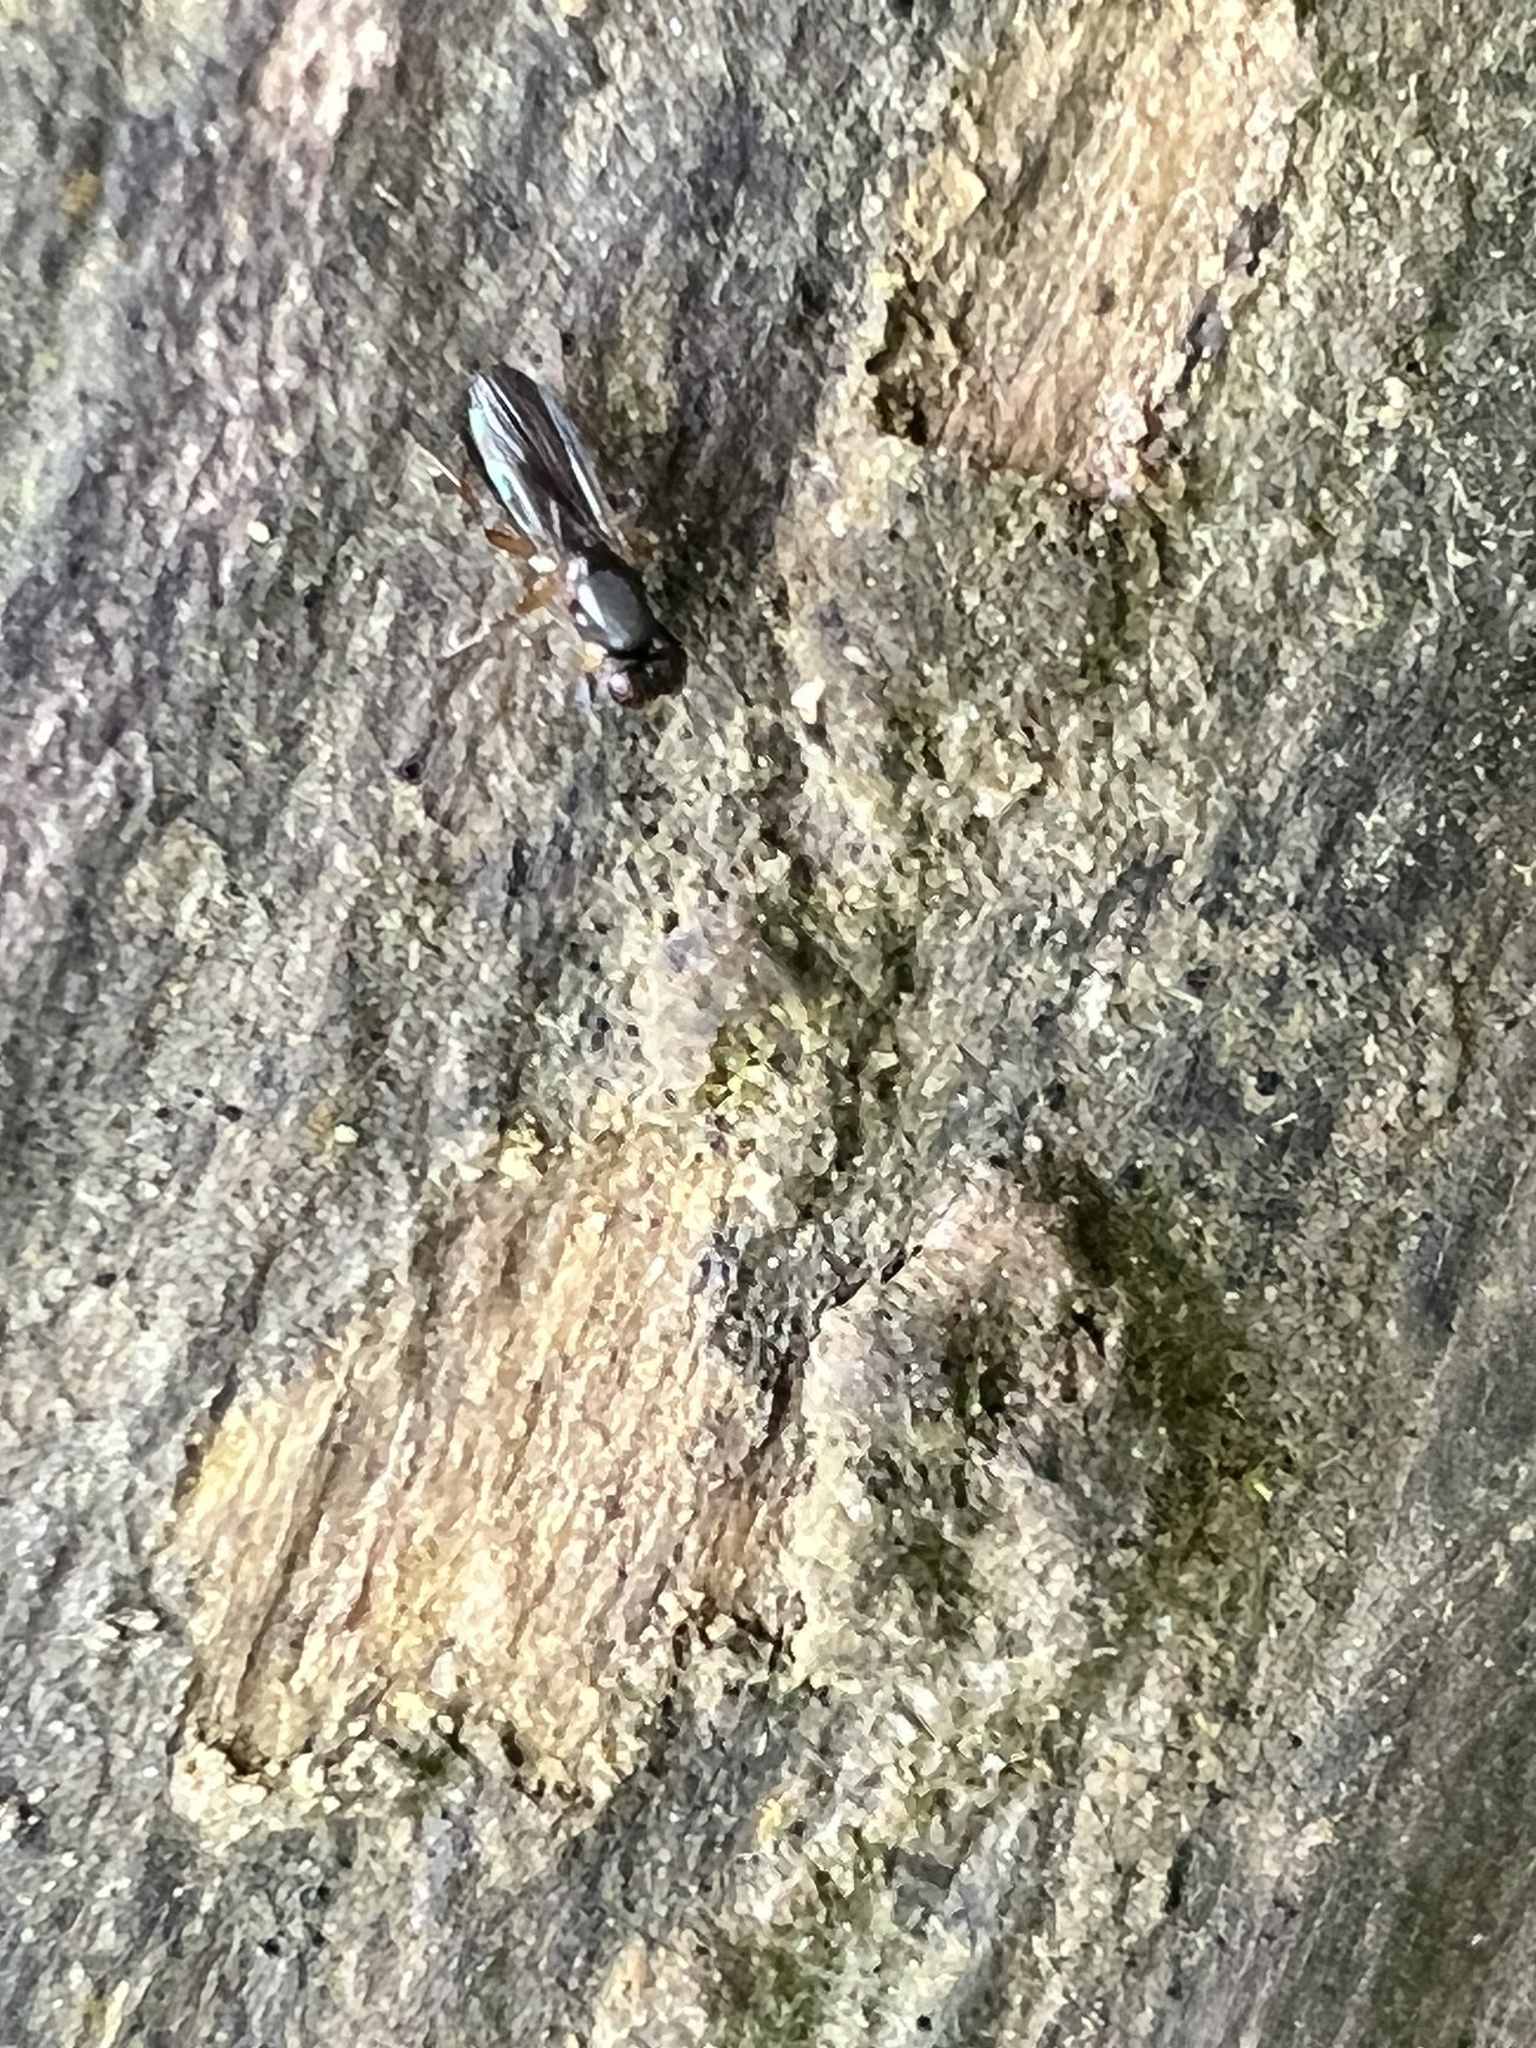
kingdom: Animalia
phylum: Arthropoda
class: Insecta
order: Diptera
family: Clusiidae
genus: Heteromeringia
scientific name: Heteromeringia nitida
